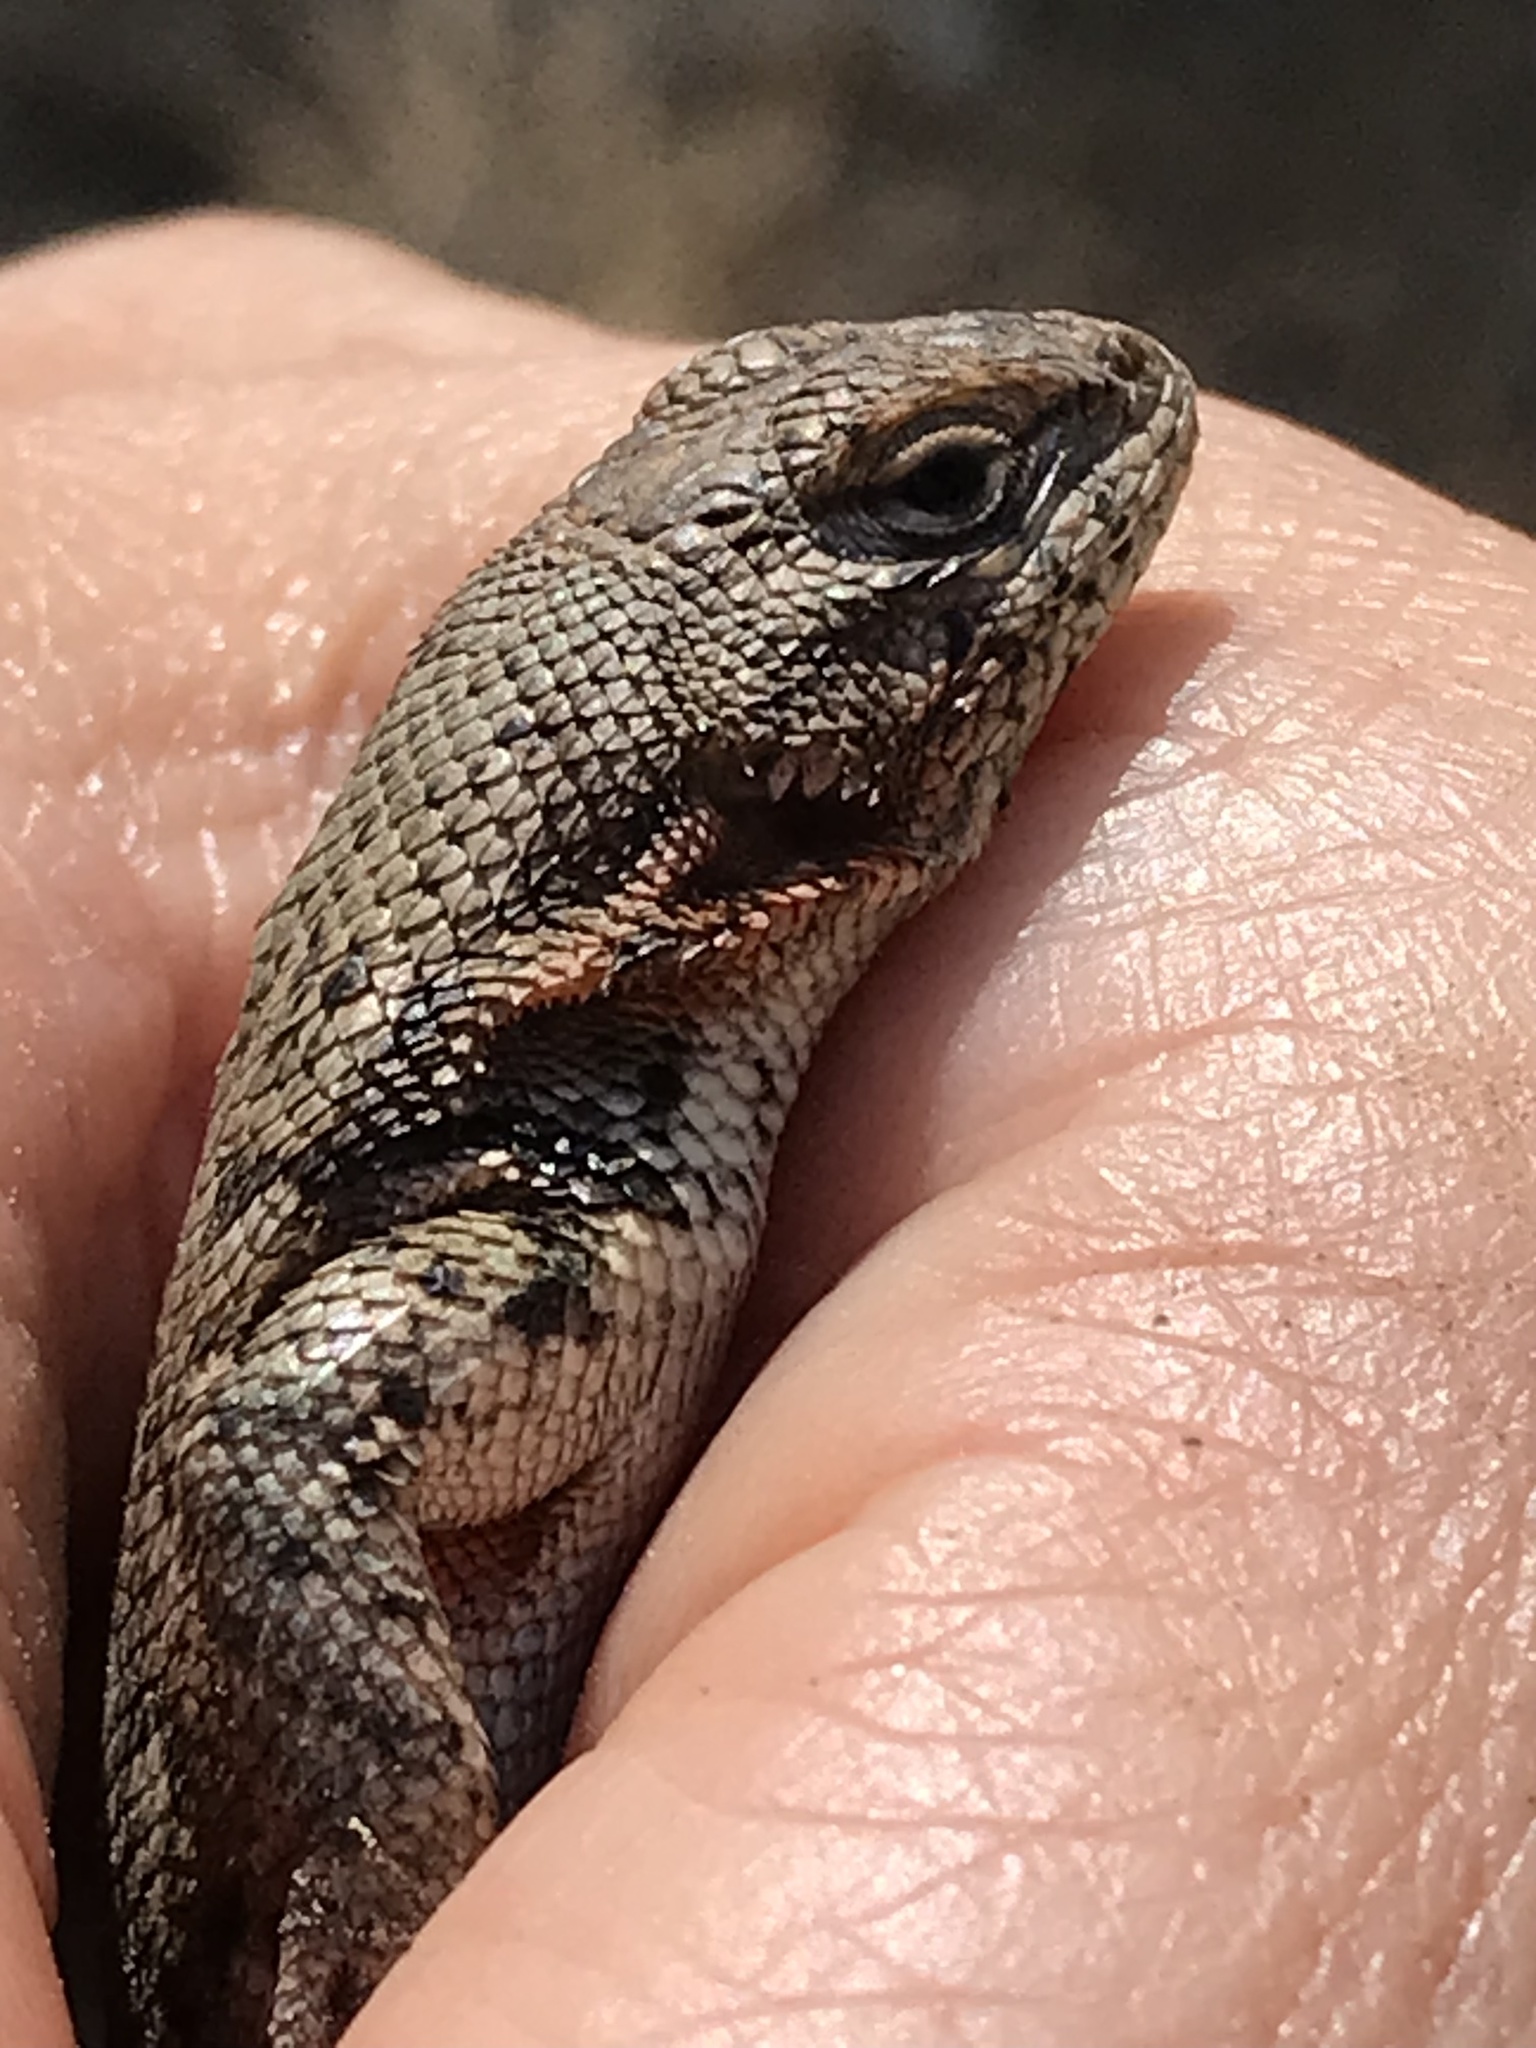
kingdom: Animalia
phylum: Chordata
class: Squamata
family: Phrynosomatidae
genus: Sceloporus
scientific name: Sceloporus graciosus
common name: Sagebrush lizard
